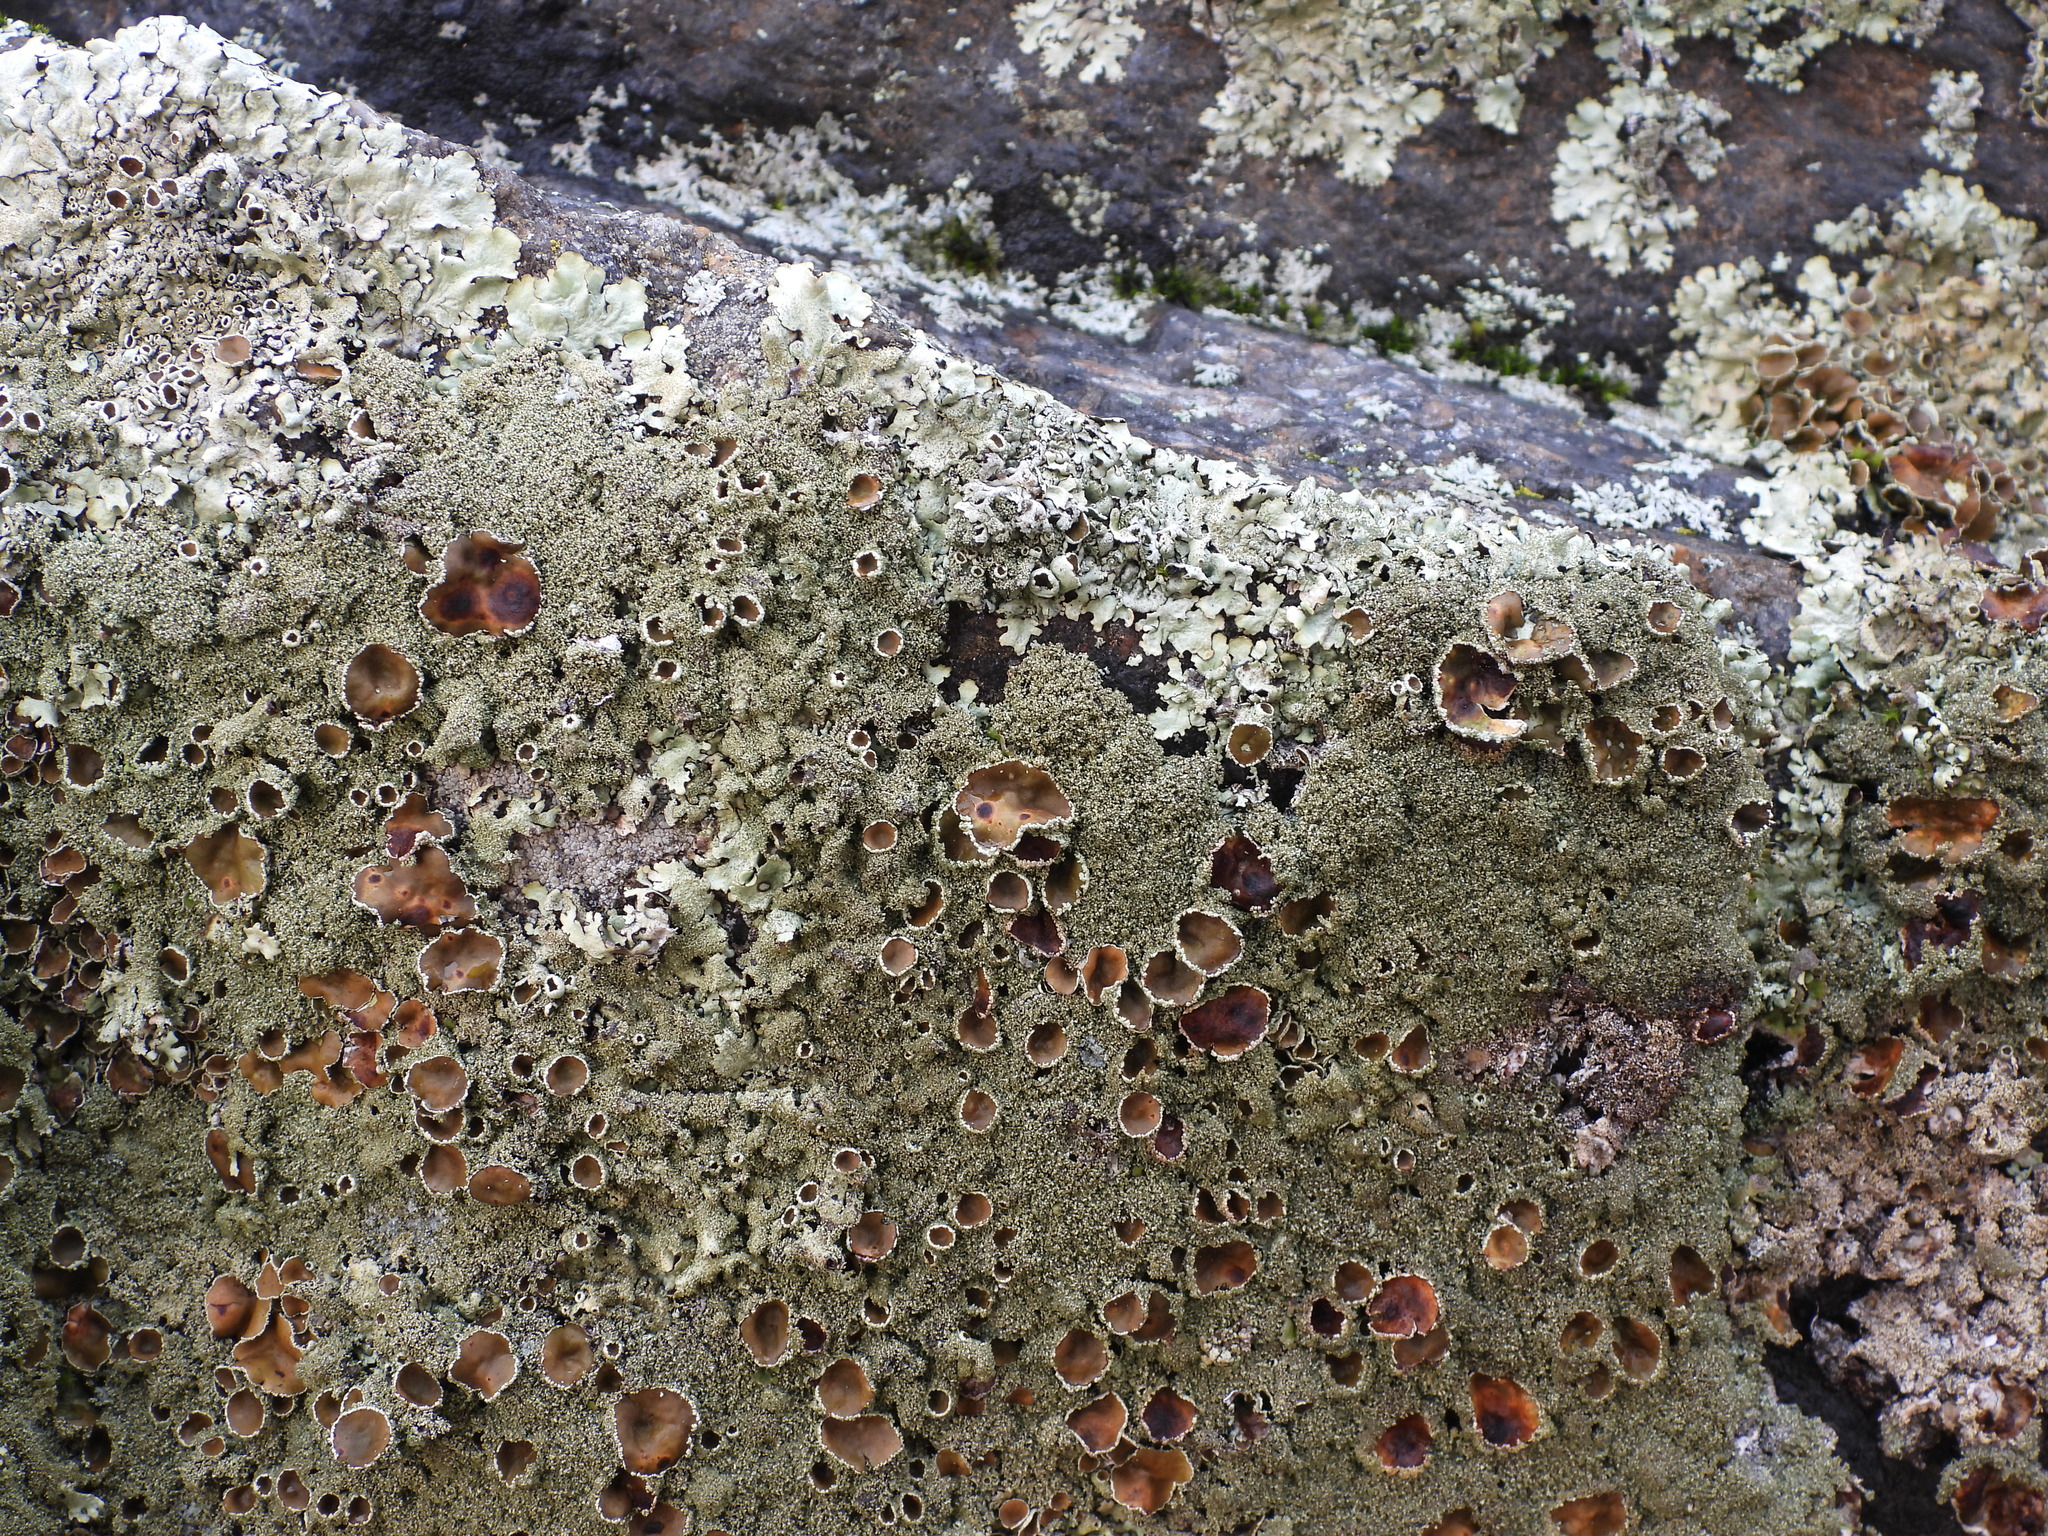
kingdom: Fungi
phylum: Ascomycota
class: Lecanoromycetes
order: Lecanorales
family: Parmeliaceae
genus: Xanthoparmelia
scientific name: Xanthoparmelia conspersa
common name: Peppered rock shield
